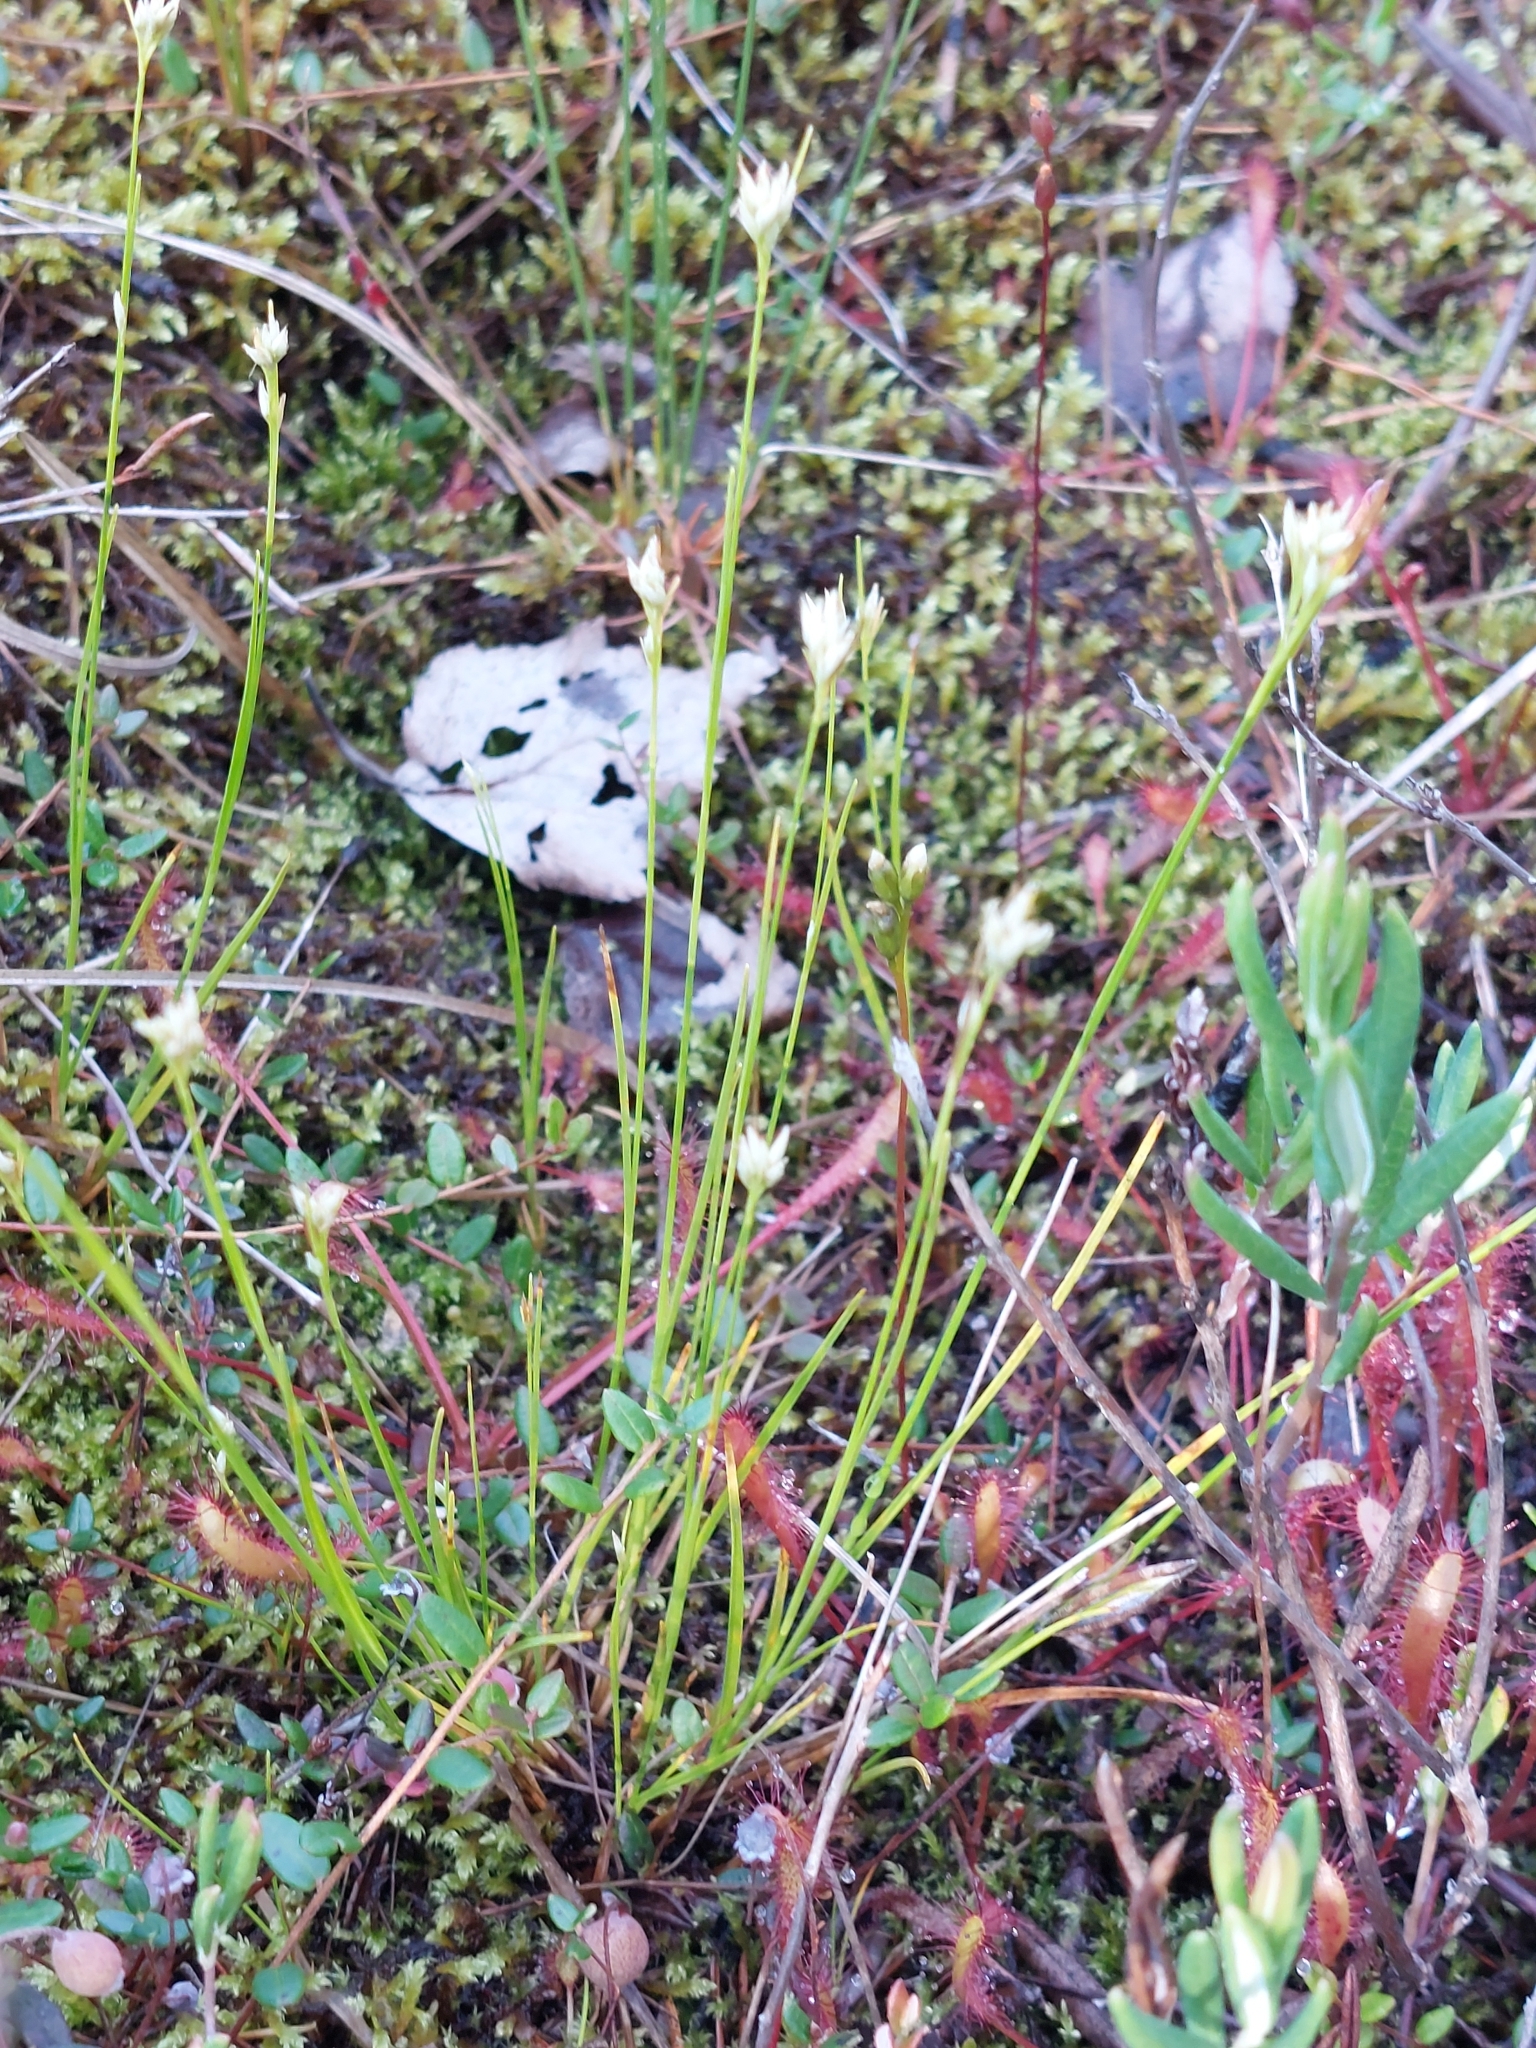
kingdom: Plantae
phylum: Tracheophyta
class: Liliopsida
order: Poales
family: Cyperaceae
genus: Rhynchospora
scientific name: Rhynchospora alba
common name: White beak-sedge
